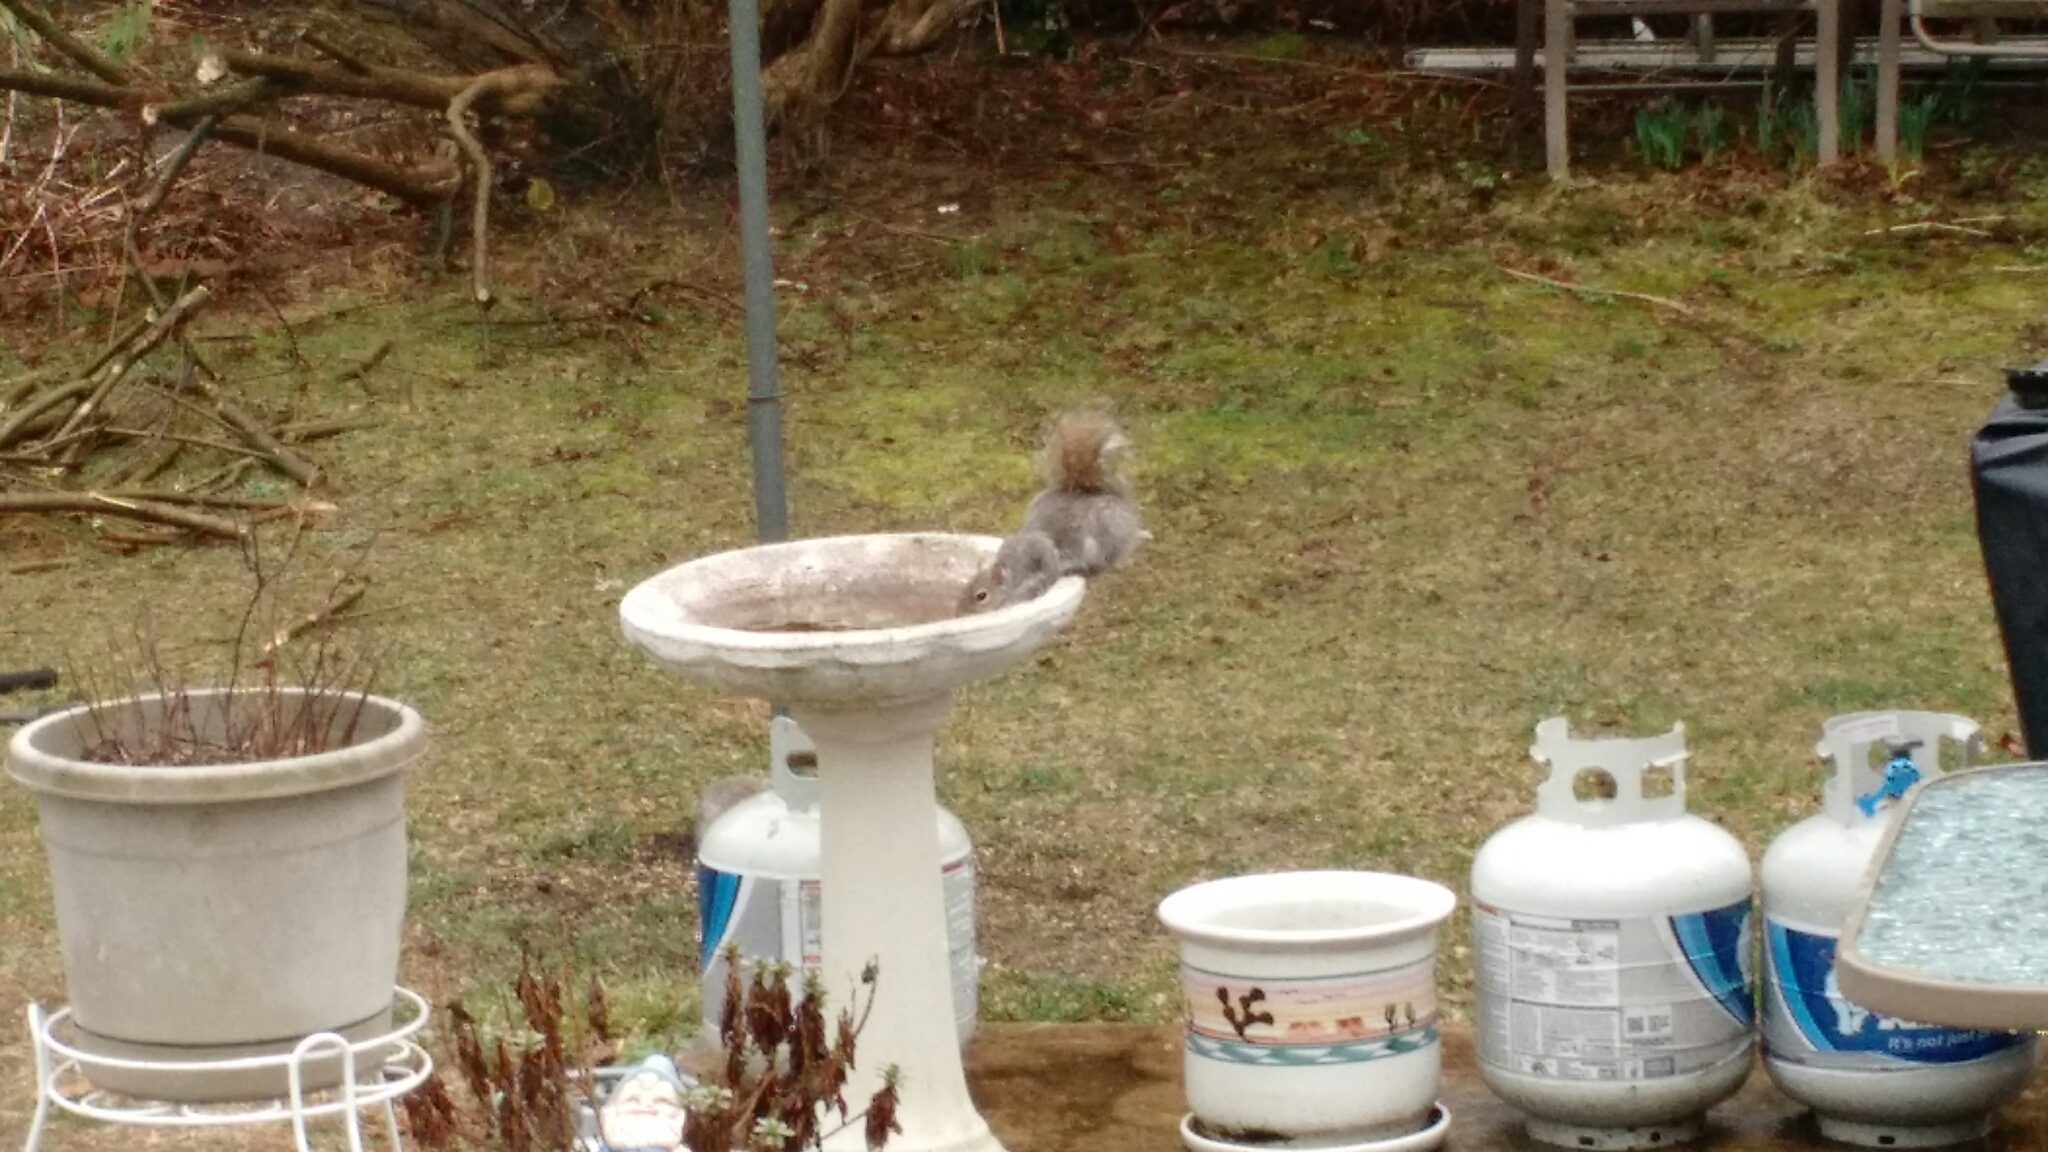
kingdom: Animalia
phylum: Chordata
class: Mammalia
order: Rodentia
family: Sciuridae
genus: Sciurus
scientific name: Sciurus carolinensis
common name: Eastern gray squirrel
